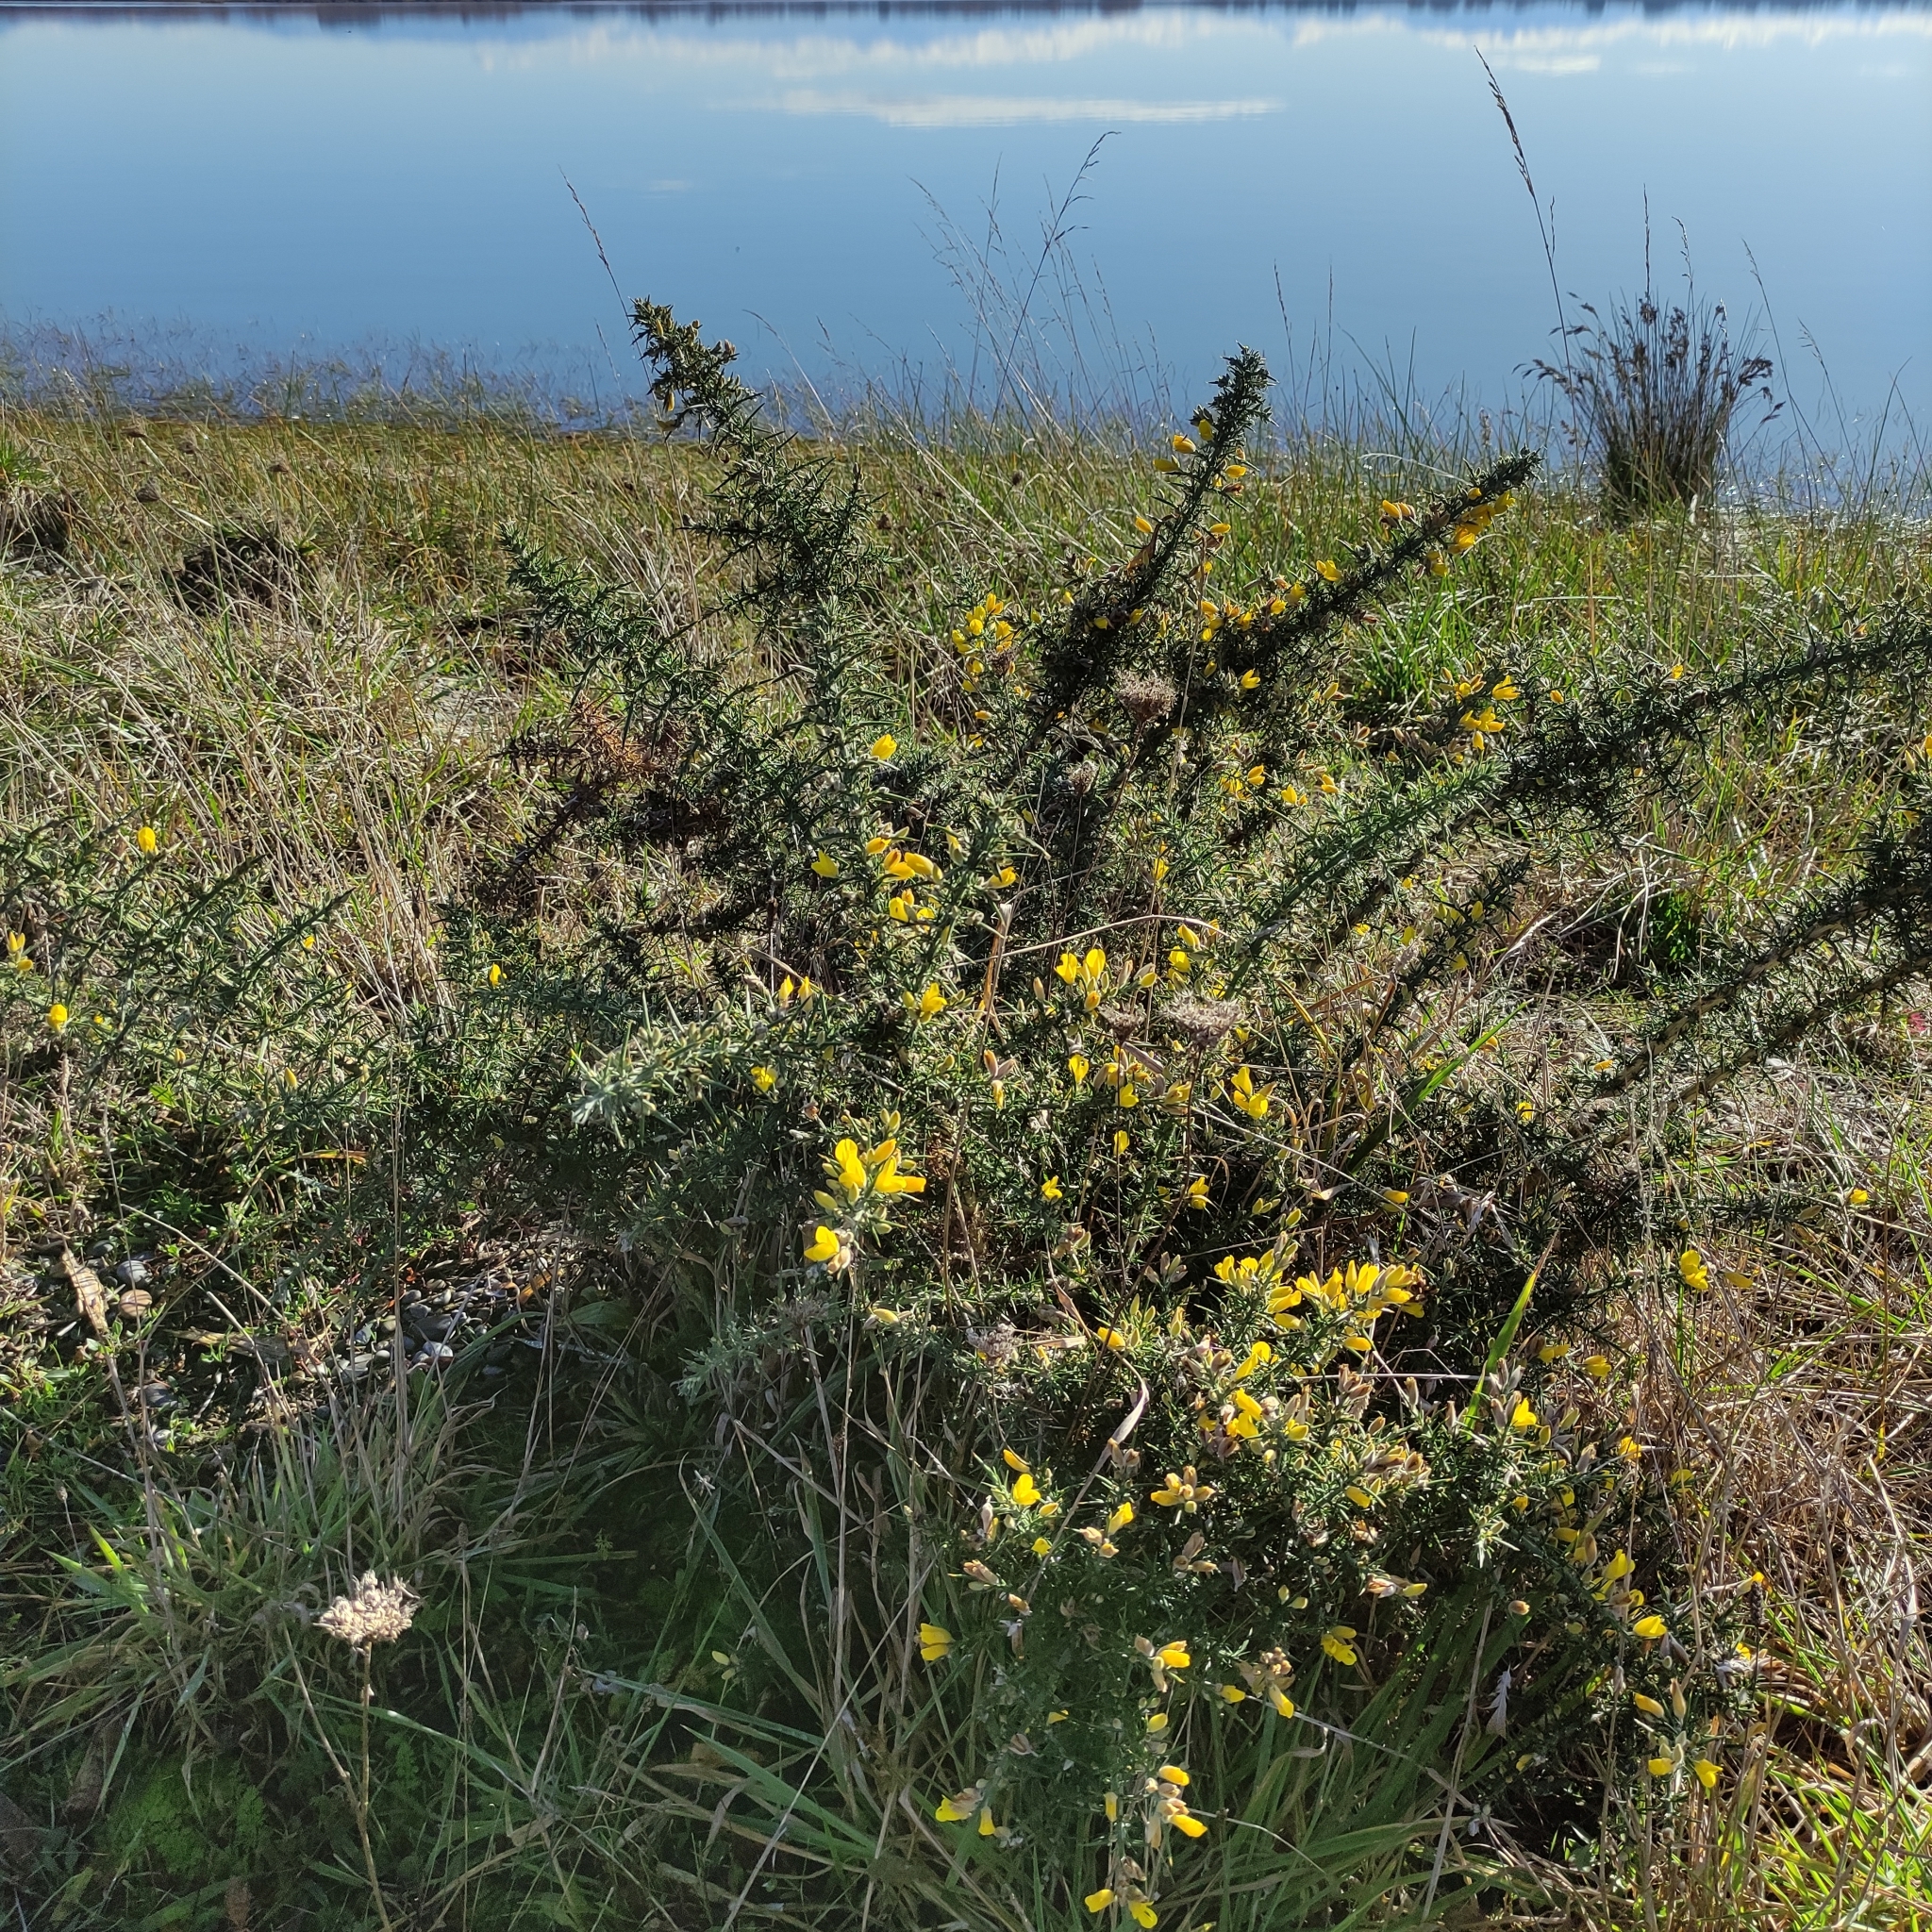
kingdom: Plantae
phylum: Tracheophyta
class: Magnoliopsida
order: Fabales
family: Fabaceae
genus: Ulex
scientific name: Ulex europaeus
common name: Common gorse
